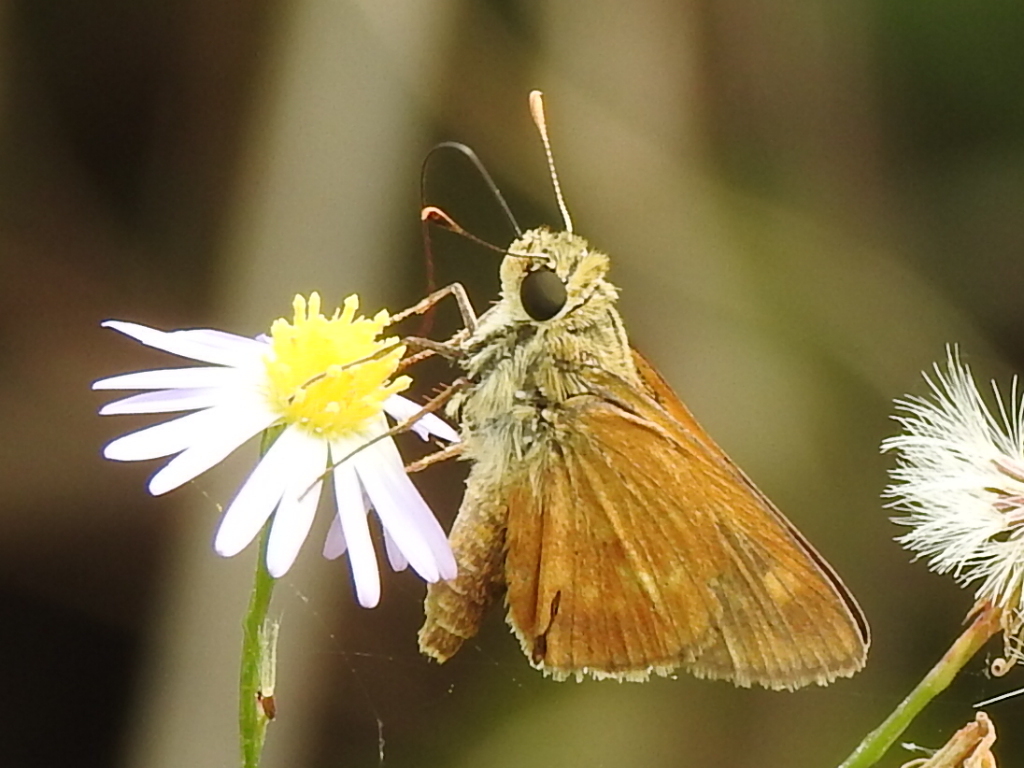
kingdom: Animalia
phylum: Arthropoda
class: Insecta
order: Lepidoptera
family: Hesperiidae
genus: Polites
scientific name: Polites otho
